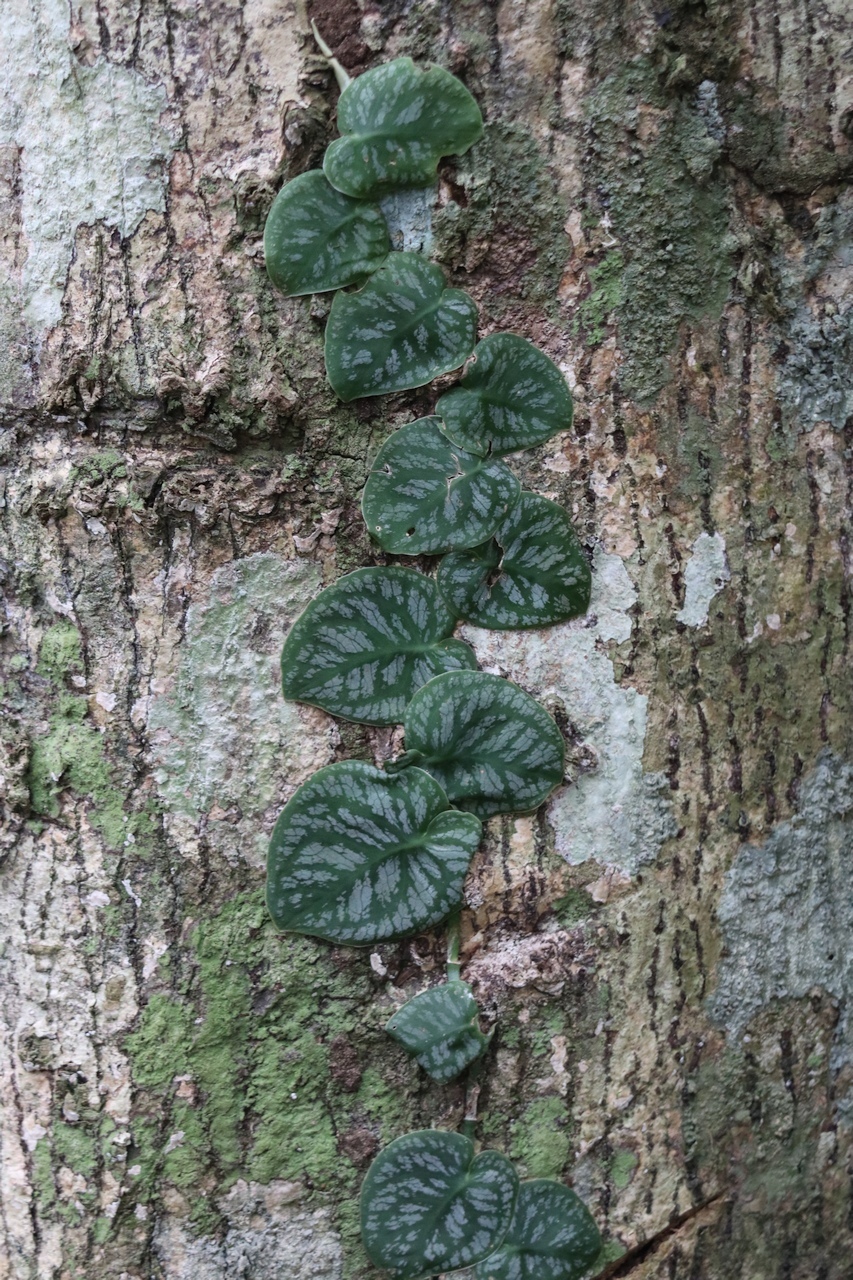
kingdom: Plantae
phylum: Tracheophyta
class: Liliopsida
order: Alismatales
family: Araceae
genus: Monstera
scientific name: Monstera dubia
